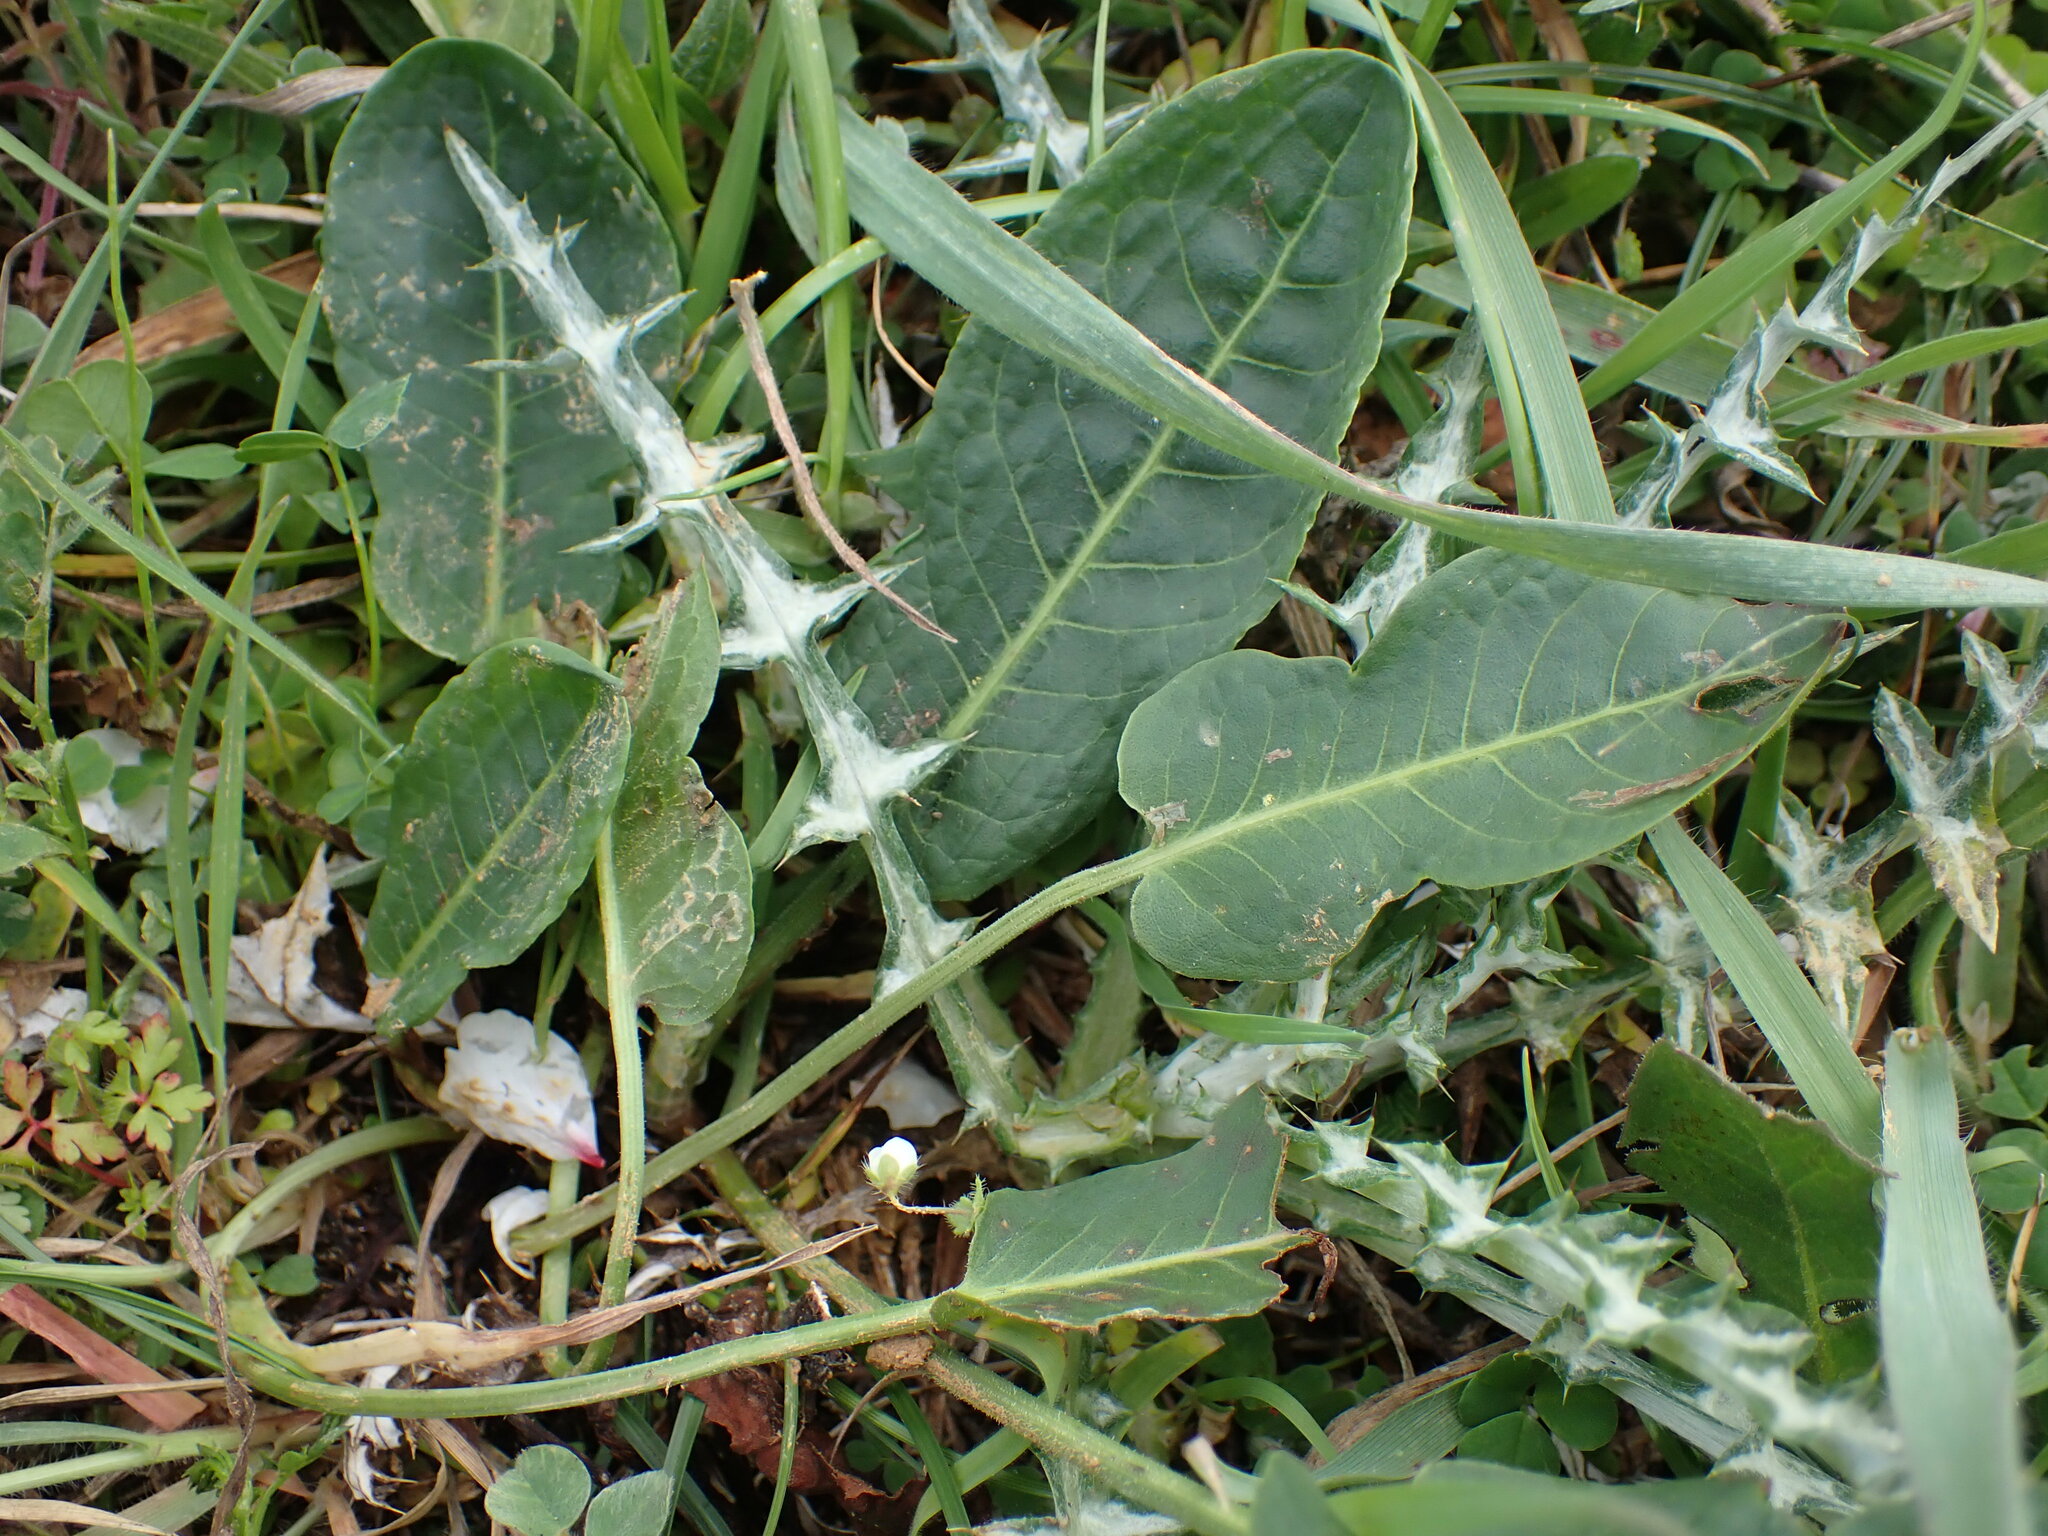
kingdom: Plantae
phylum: Tracheophyta
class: Magnoliopsida
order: Caryophyllales
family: Polygonaceae
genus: Rumex
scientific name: Rumex pulcher
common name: Fiddle dock
